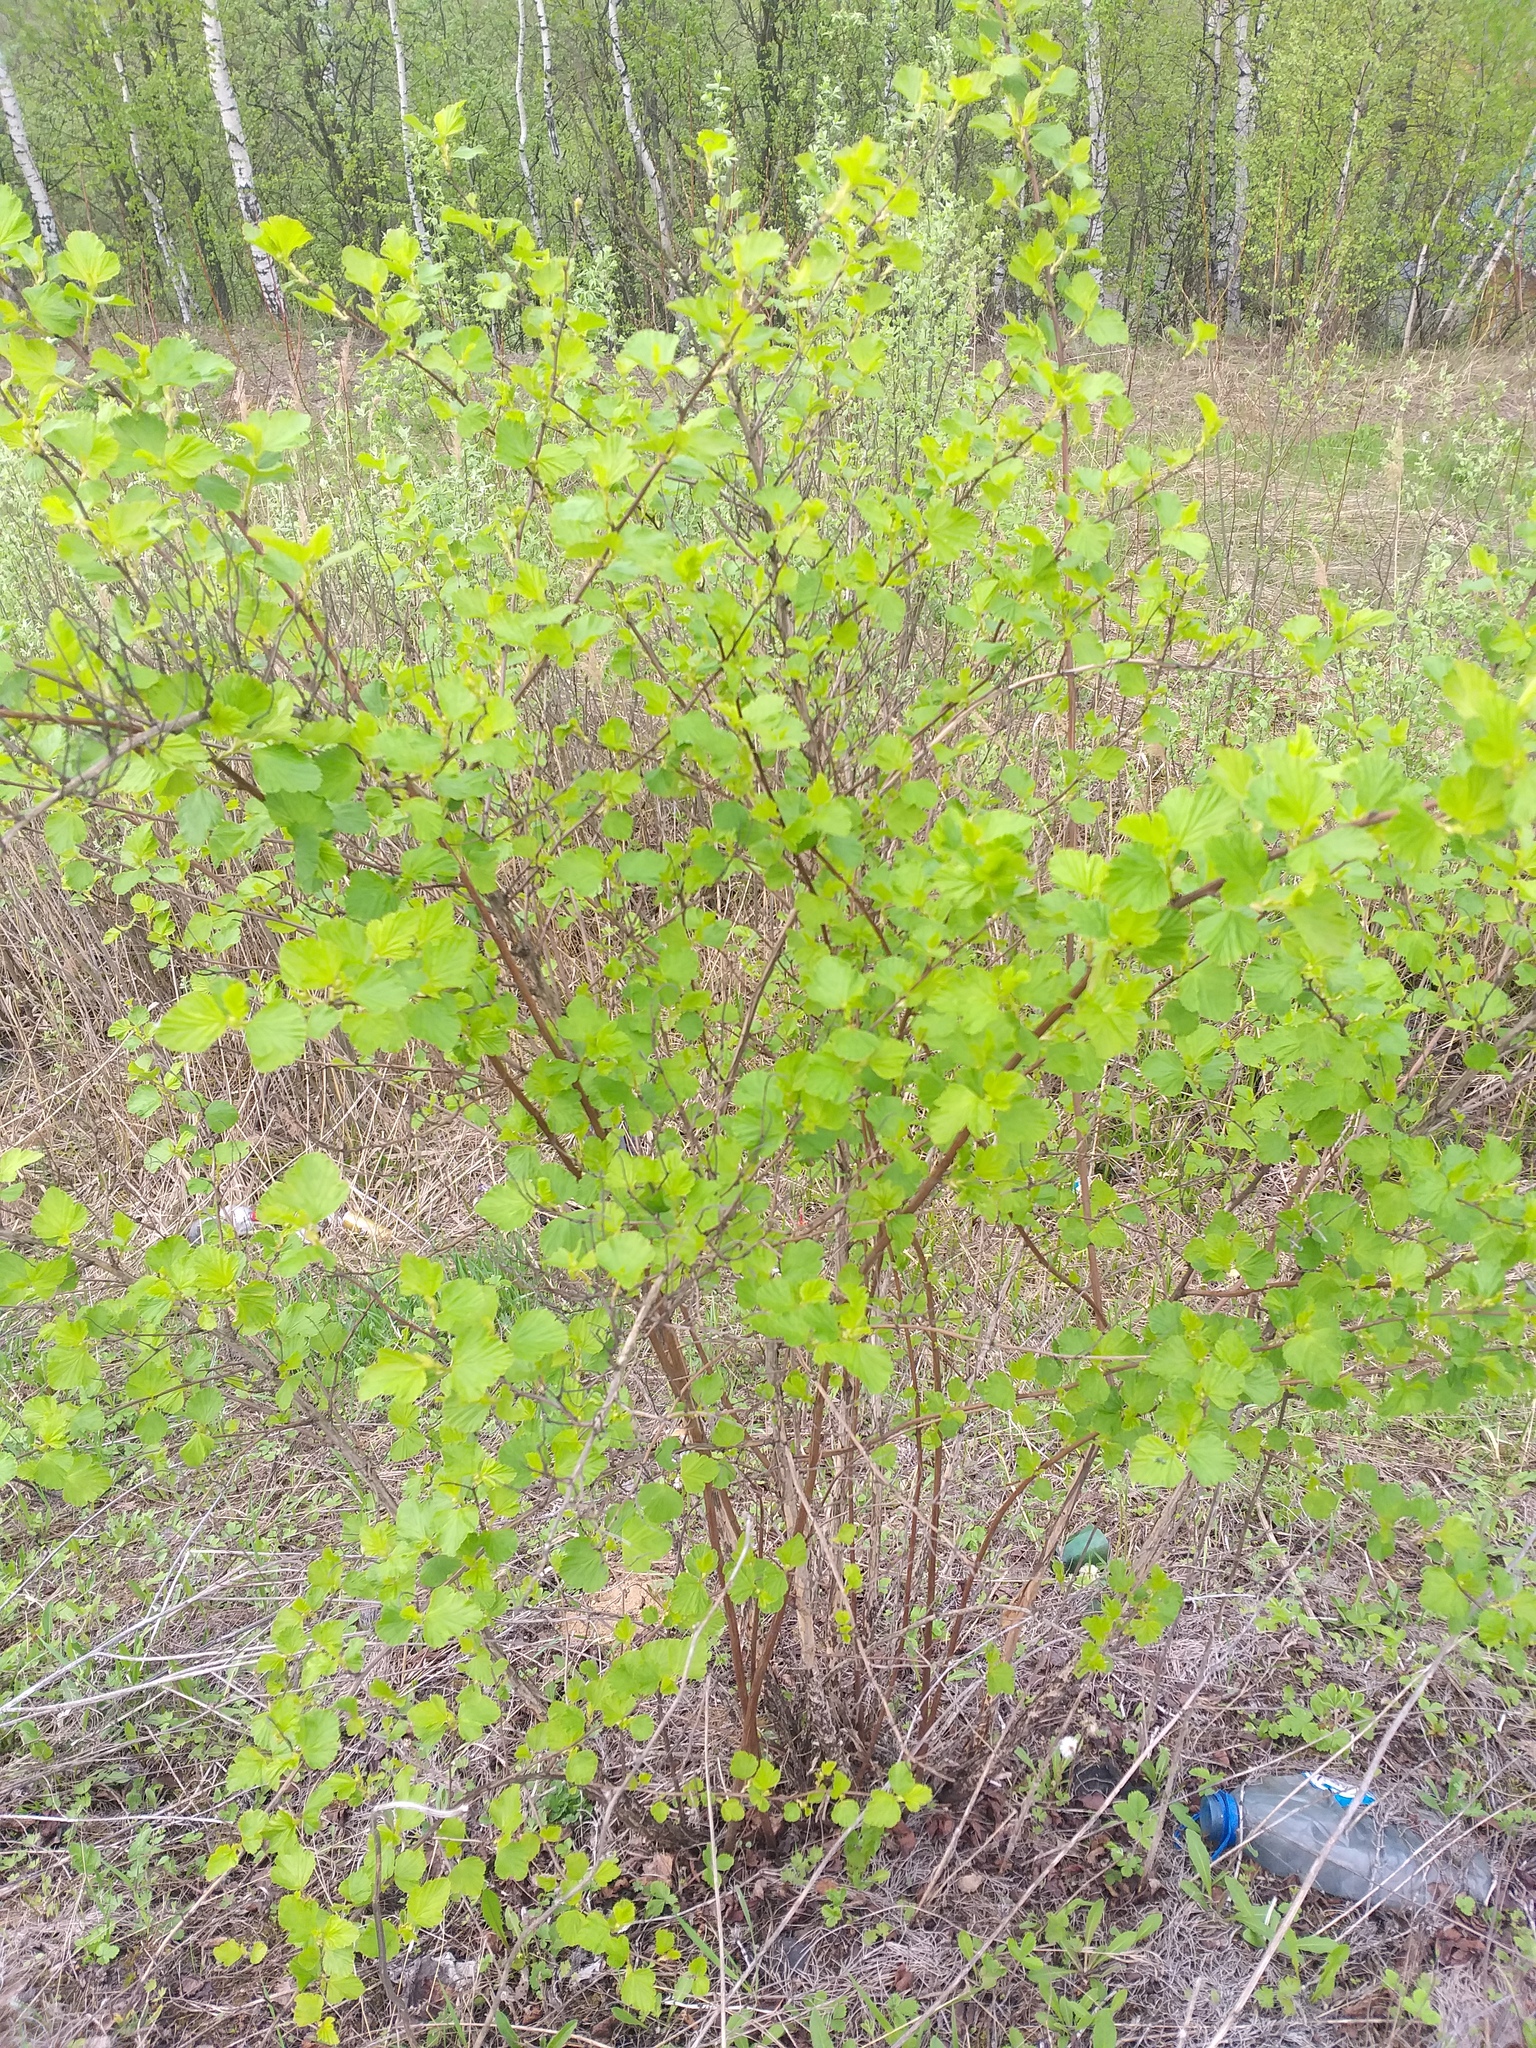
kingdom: Plantae
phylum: Tracheophyta
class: Magnoliopsida
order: Rosales
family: Rosaceae
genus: Physocarpus
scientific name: Physocarpus opulifolius
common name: Ninebark
